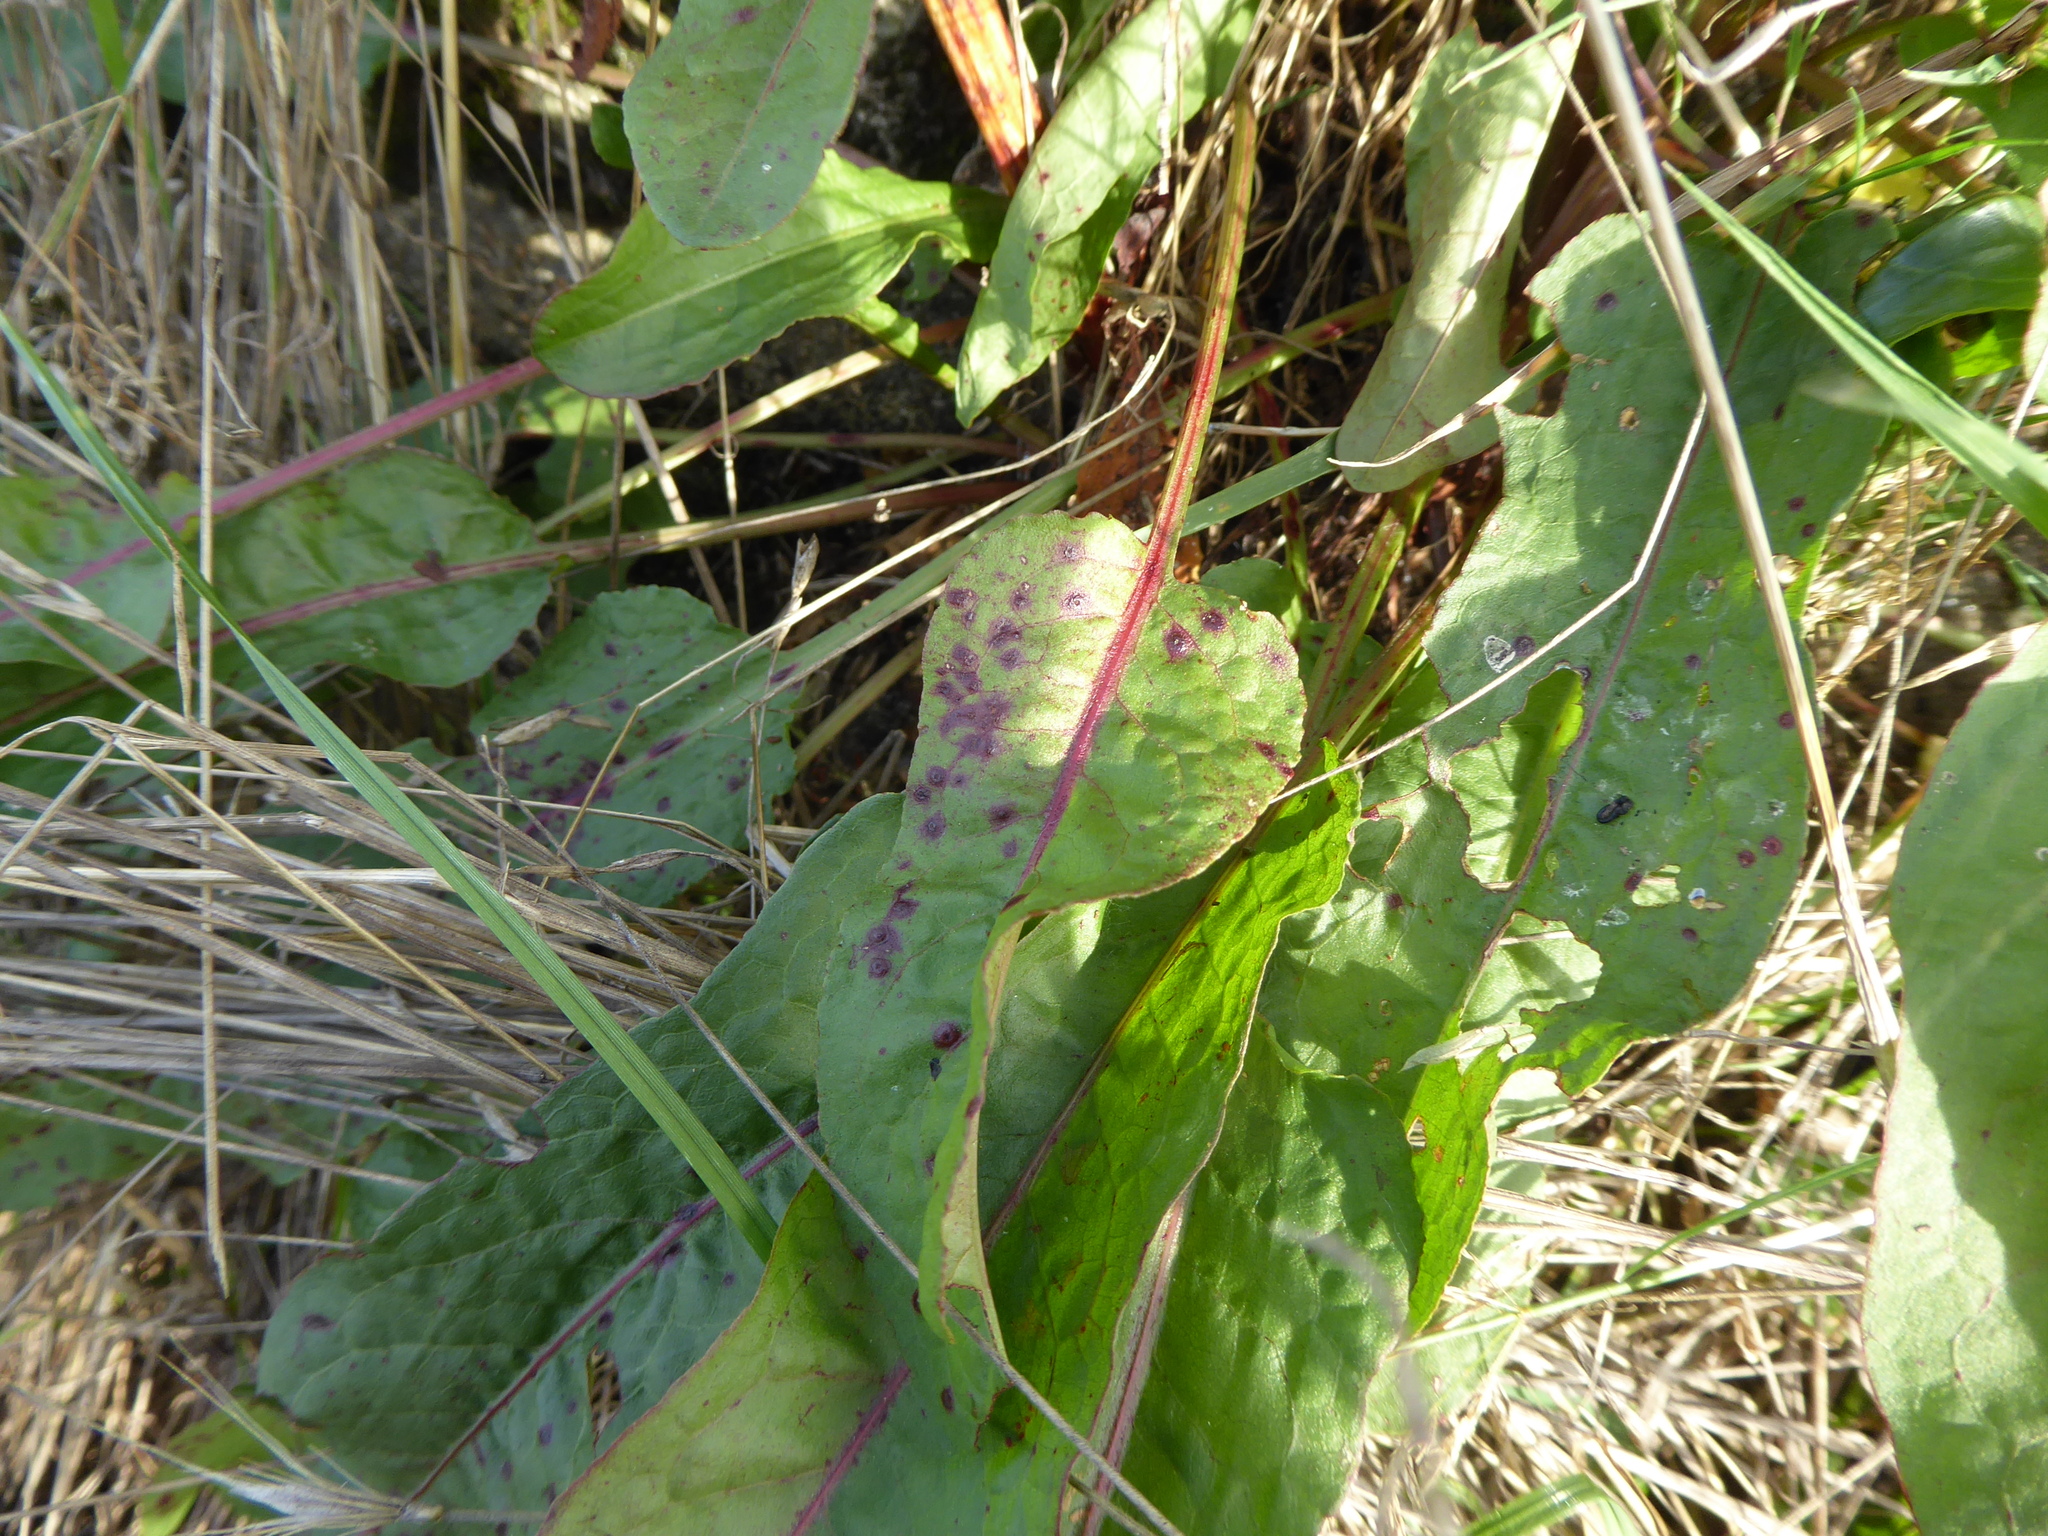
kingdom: Plantae
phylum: Tracheophyta
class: Magnoliopsida
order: Caryophyllales
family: Polygonaceae
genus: Rumex
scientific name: Rumex sanguineus
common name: Wood dock
